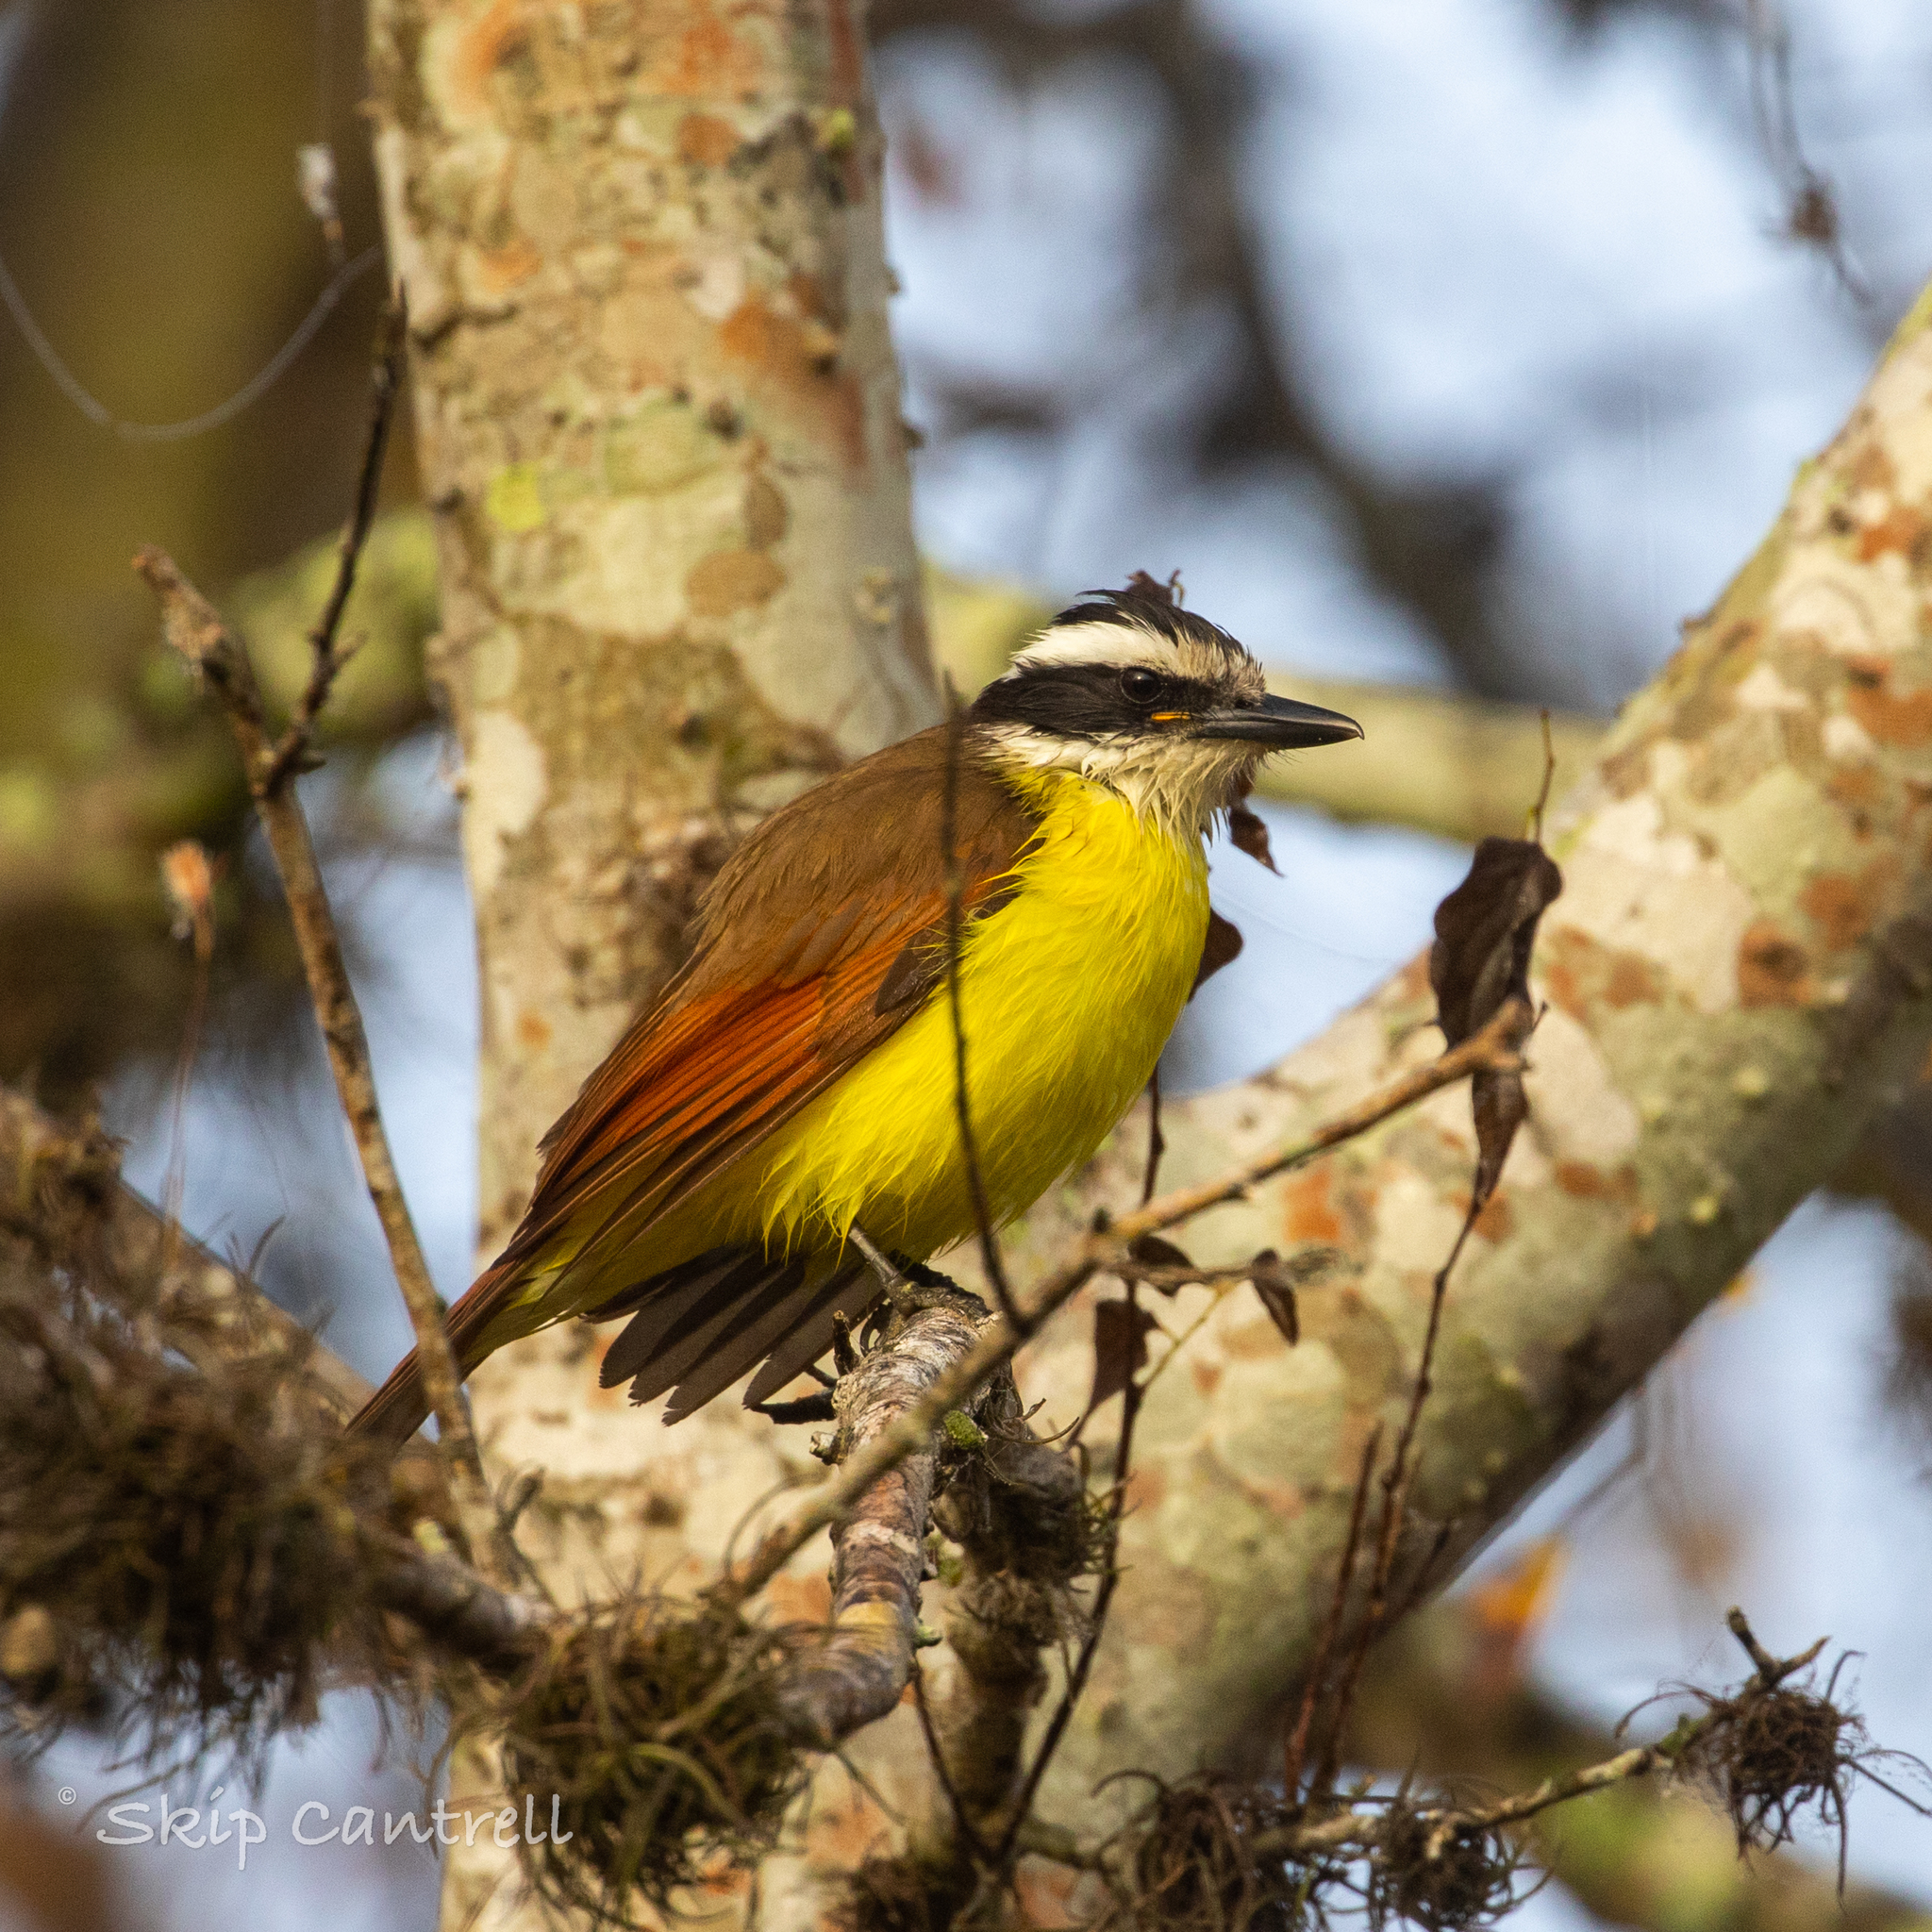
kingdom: Animalia
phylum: Chordata
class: Aves
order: Passeriformes
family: Tyrannidae
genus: Pitangus
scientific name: Pitangus sulphuratus
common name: Great kiskadee
